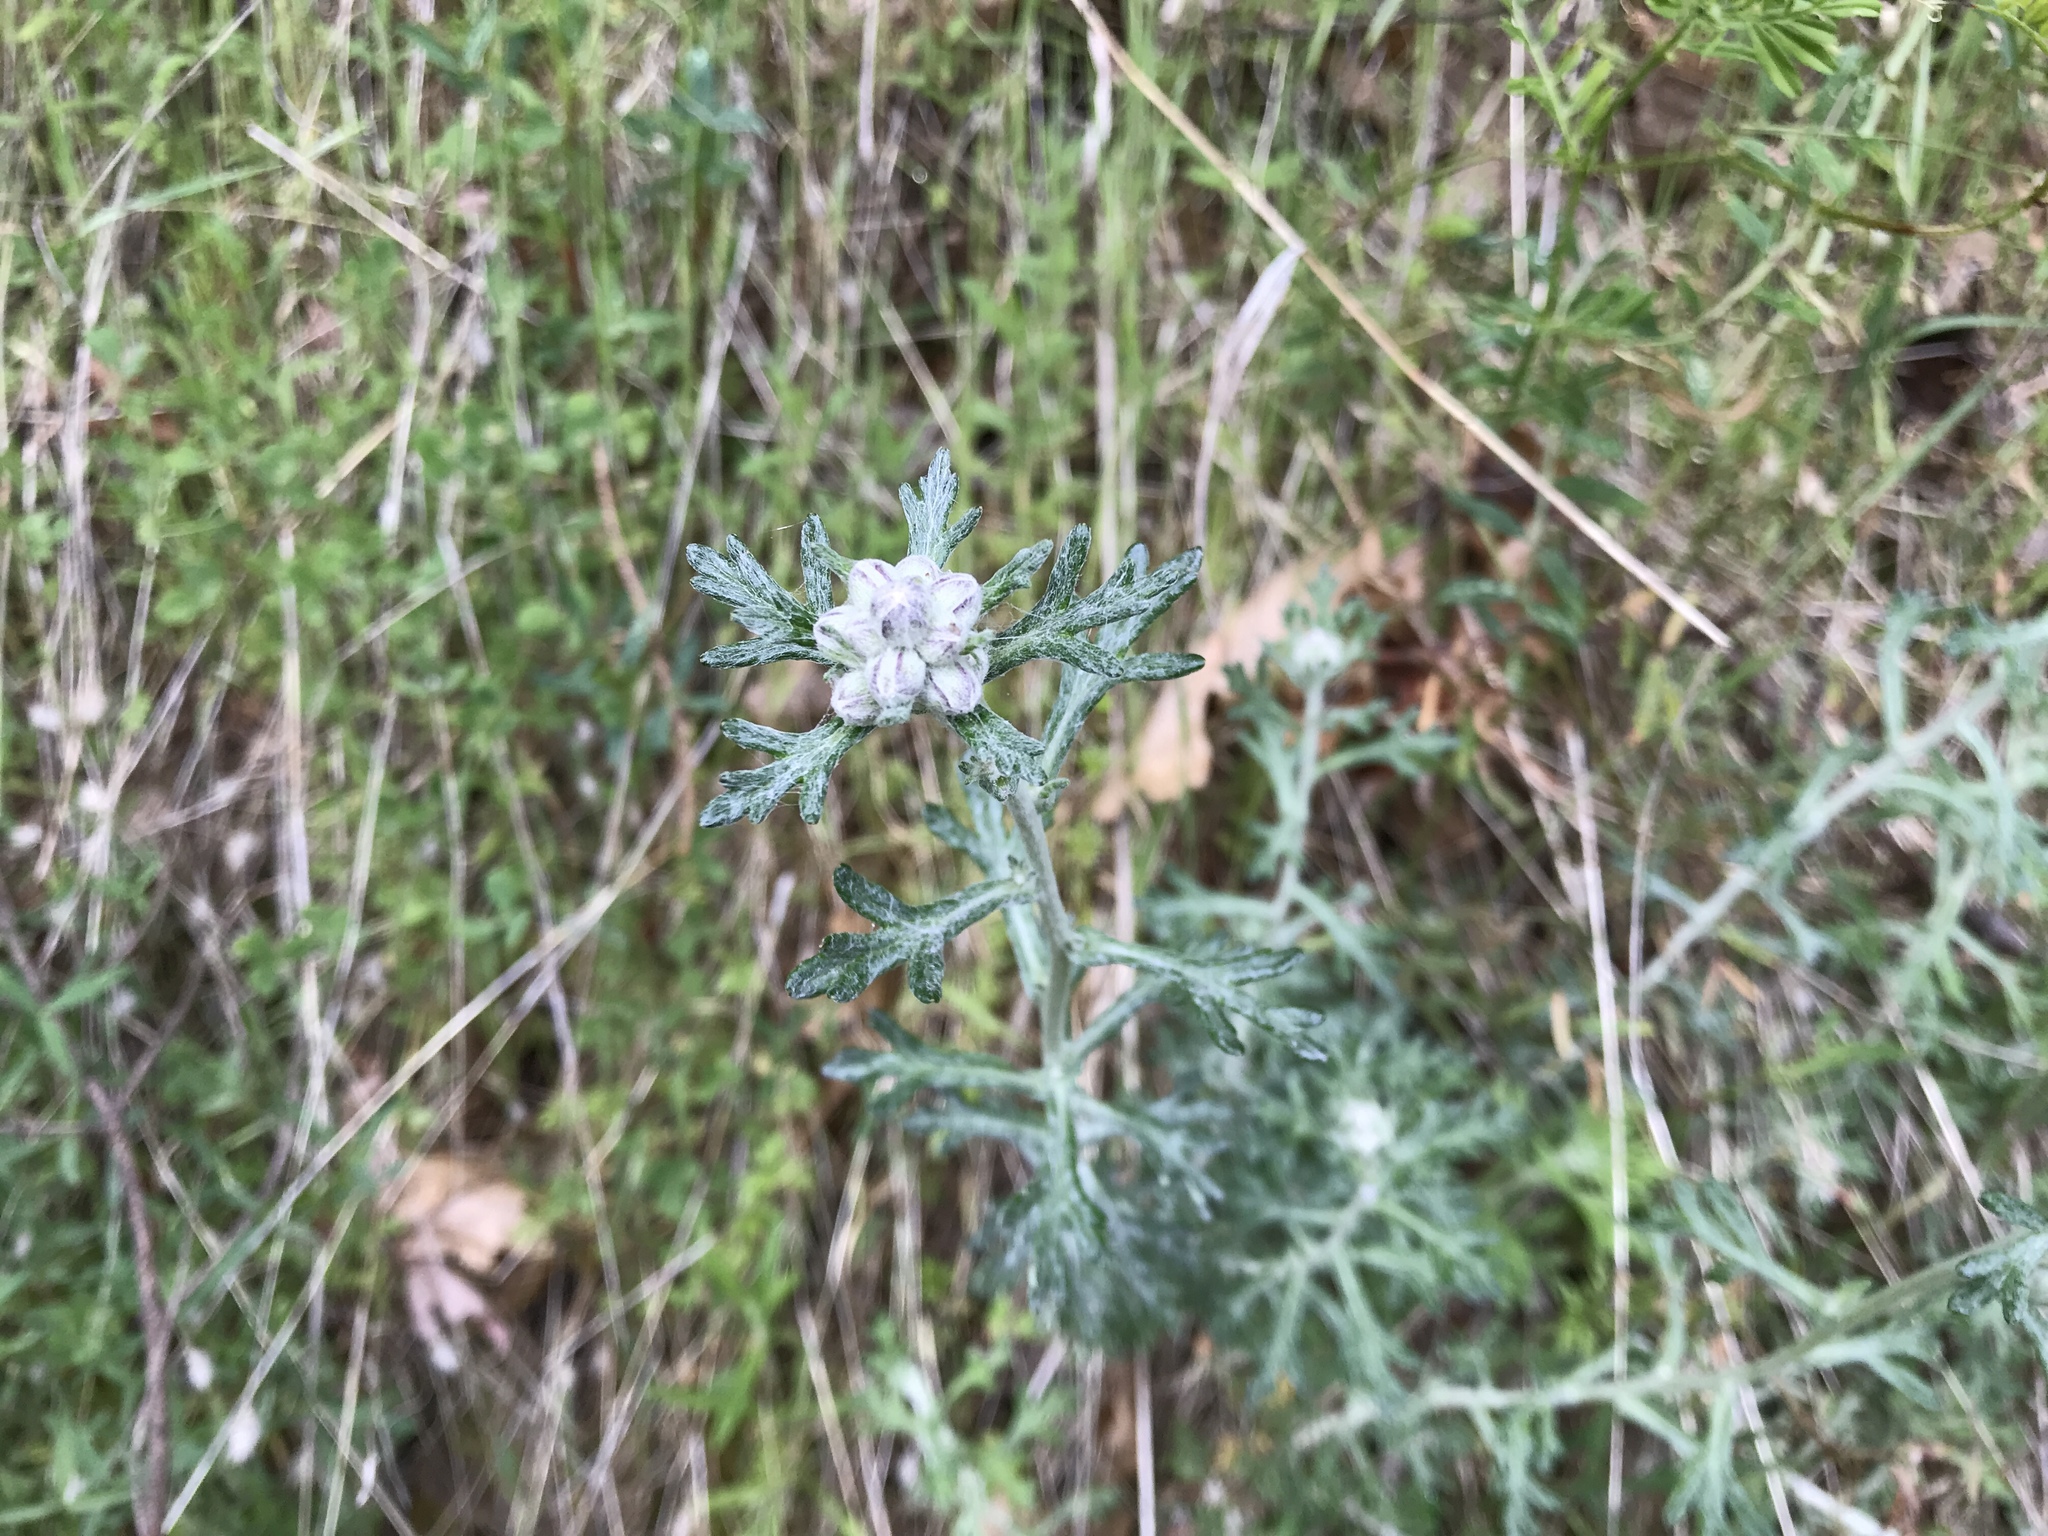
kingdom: Plantae
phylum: Tracheophyta
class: Magnoliopsida
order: Asterales
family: Asteraceae
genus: Eriophyllum
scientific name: Eriophyllum confertiflorum
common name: Golden-yarrow
